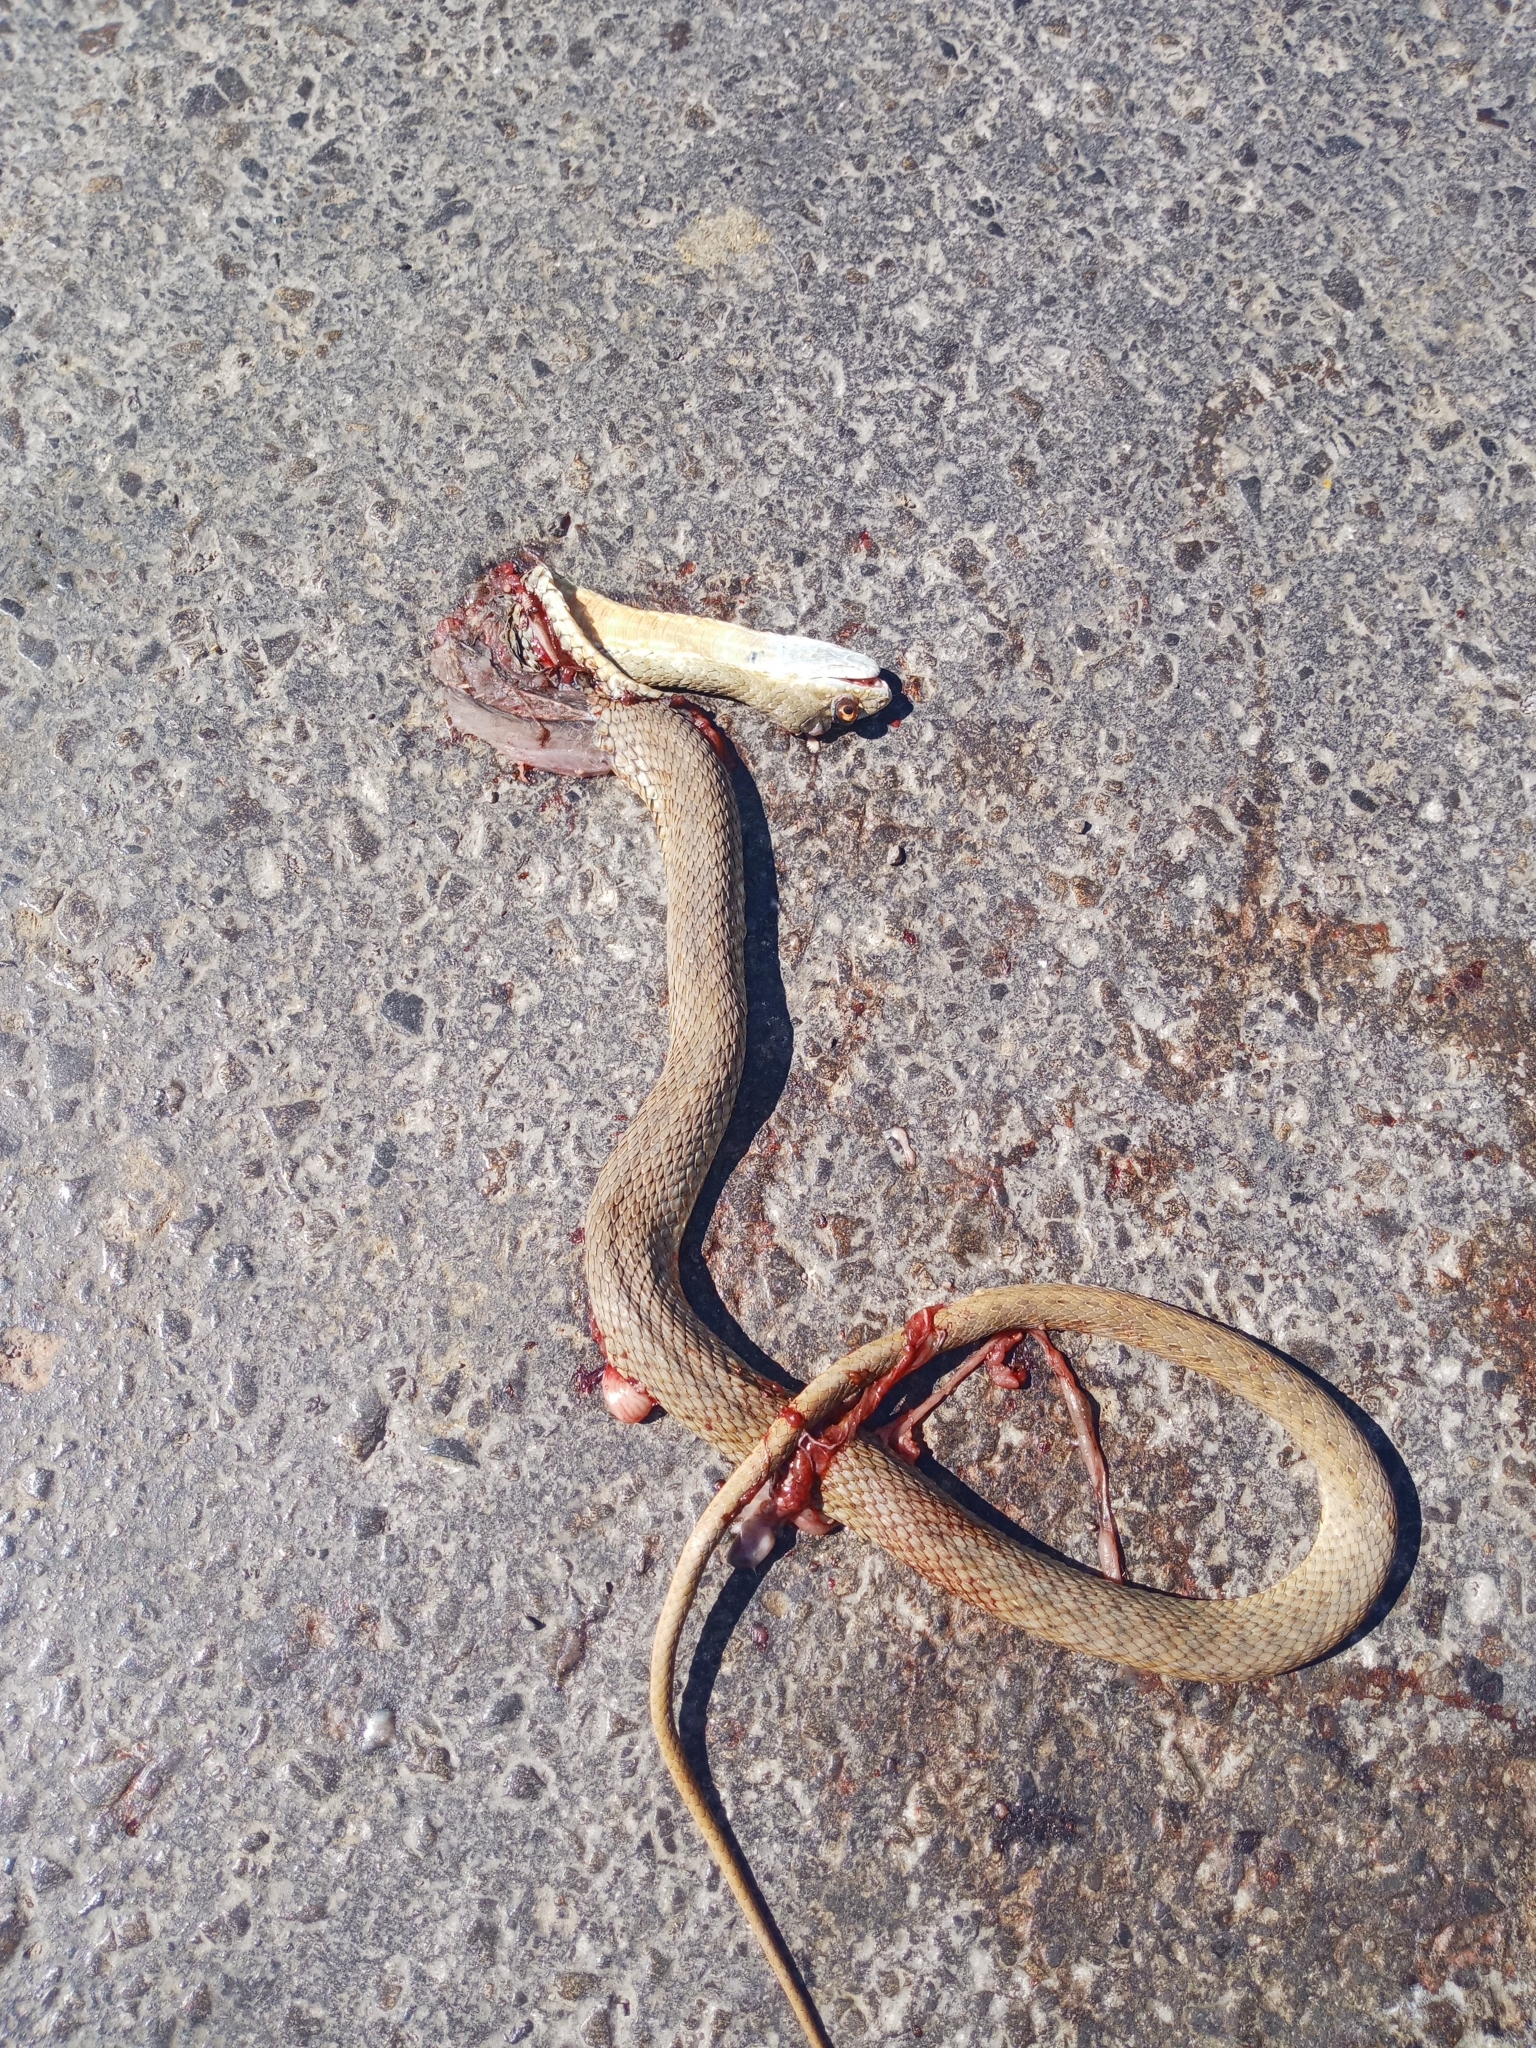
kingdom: Animalia
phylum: Chordata
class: Squamata
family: Psammophiidae
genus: Malpolon
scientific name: Malpolon insignitus
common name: Eastern montpellier snake
